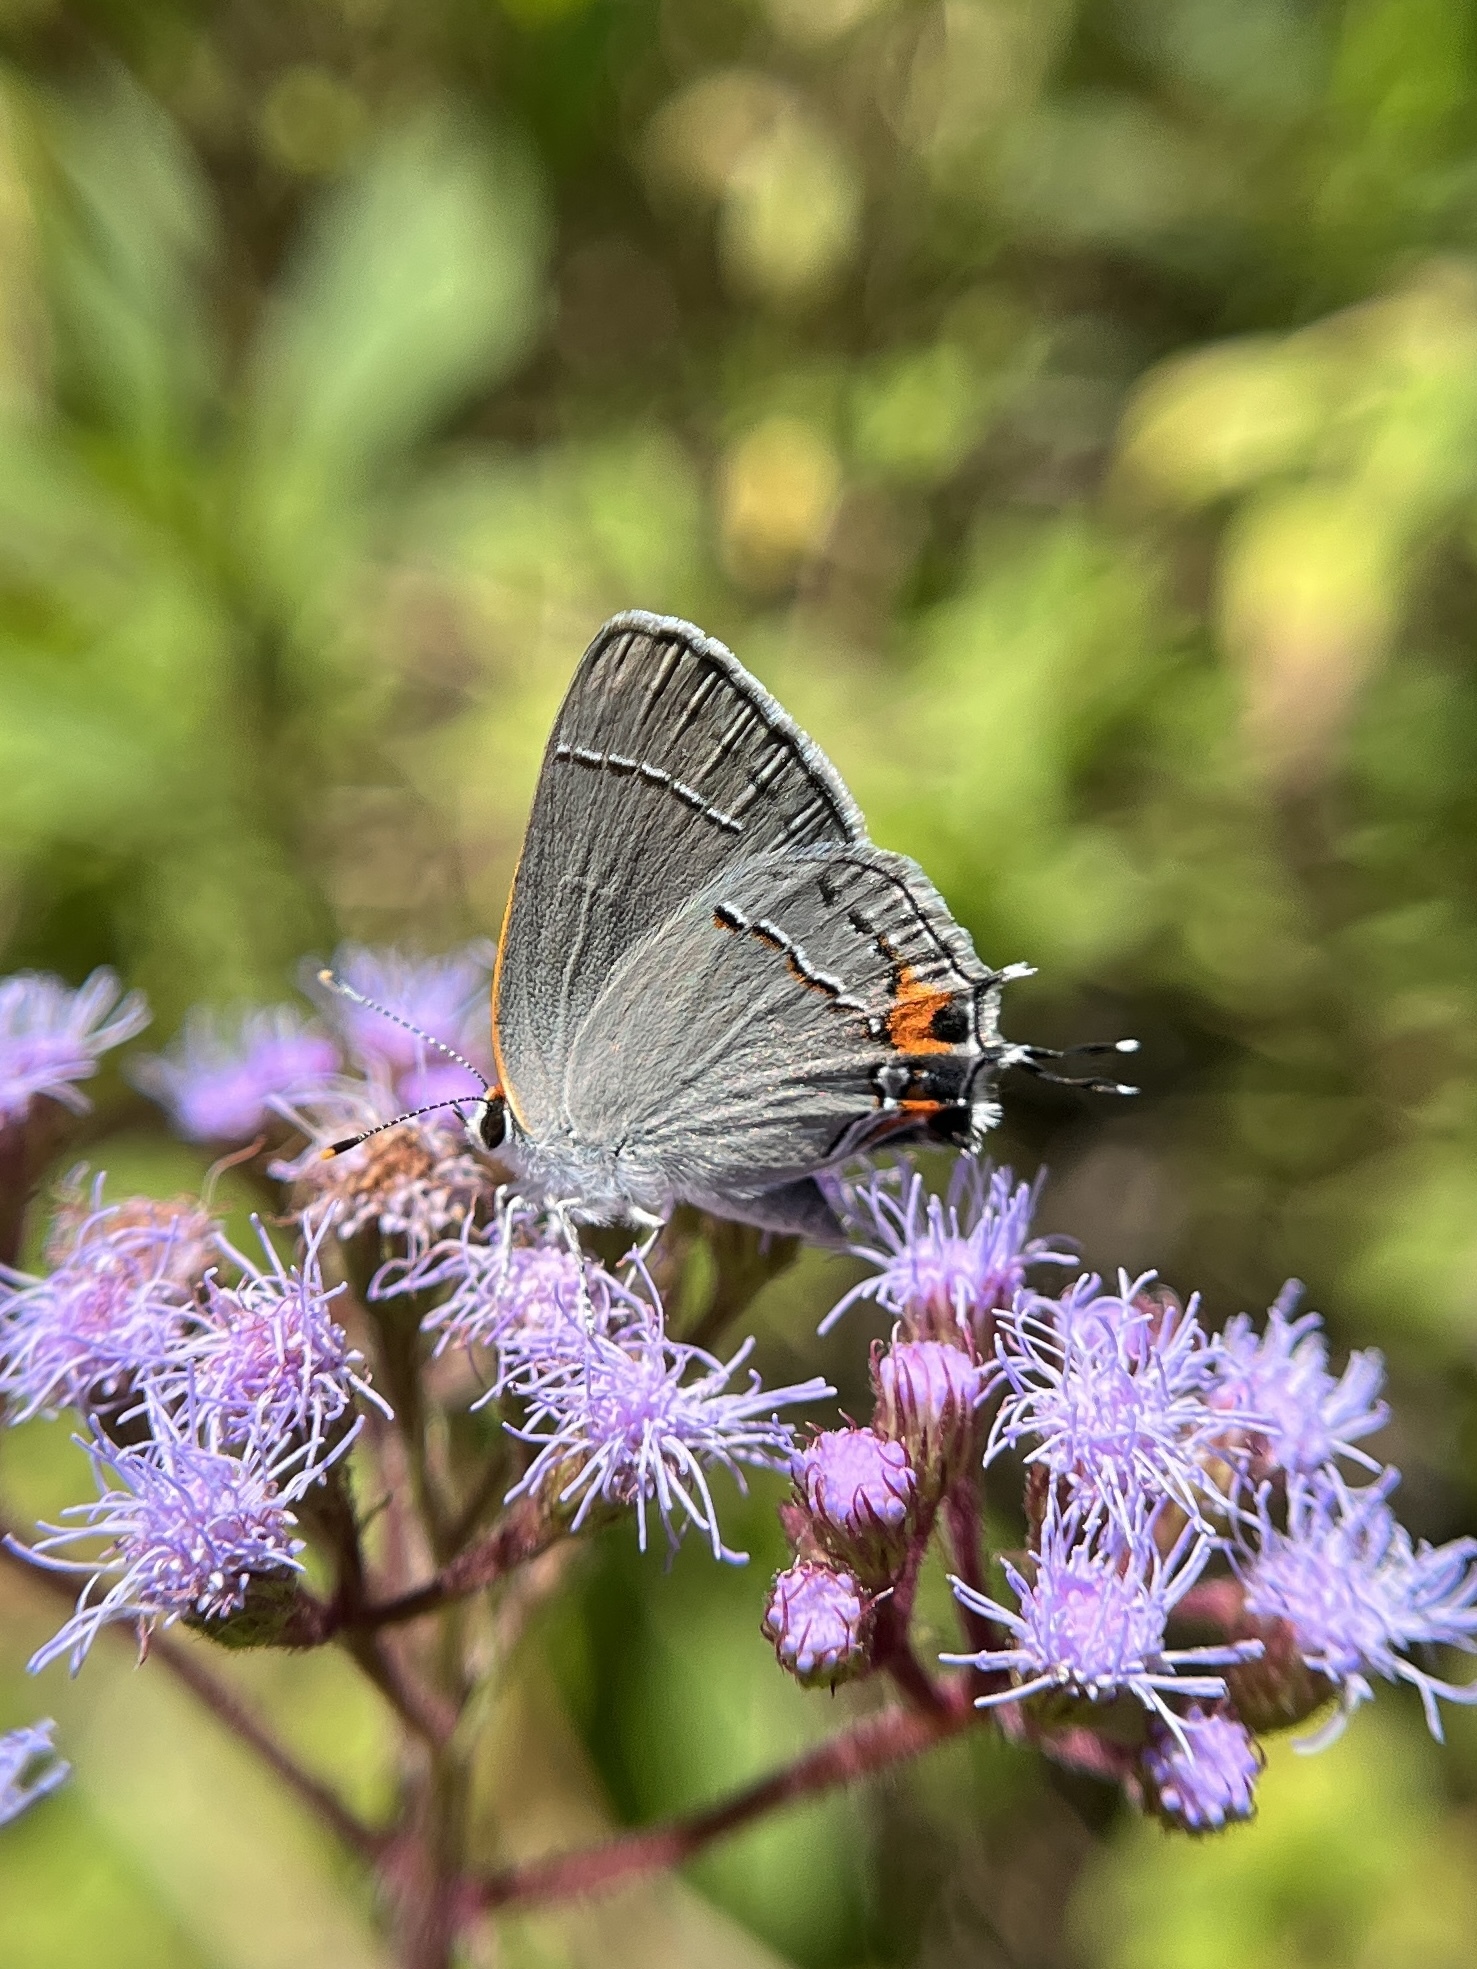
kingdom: Animalia
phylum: Arthropoda
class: Insecta
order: Lepidoptera
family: Lycaenidae
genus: Strymon
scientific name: Strymon melinus
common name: Gray hairstreak
